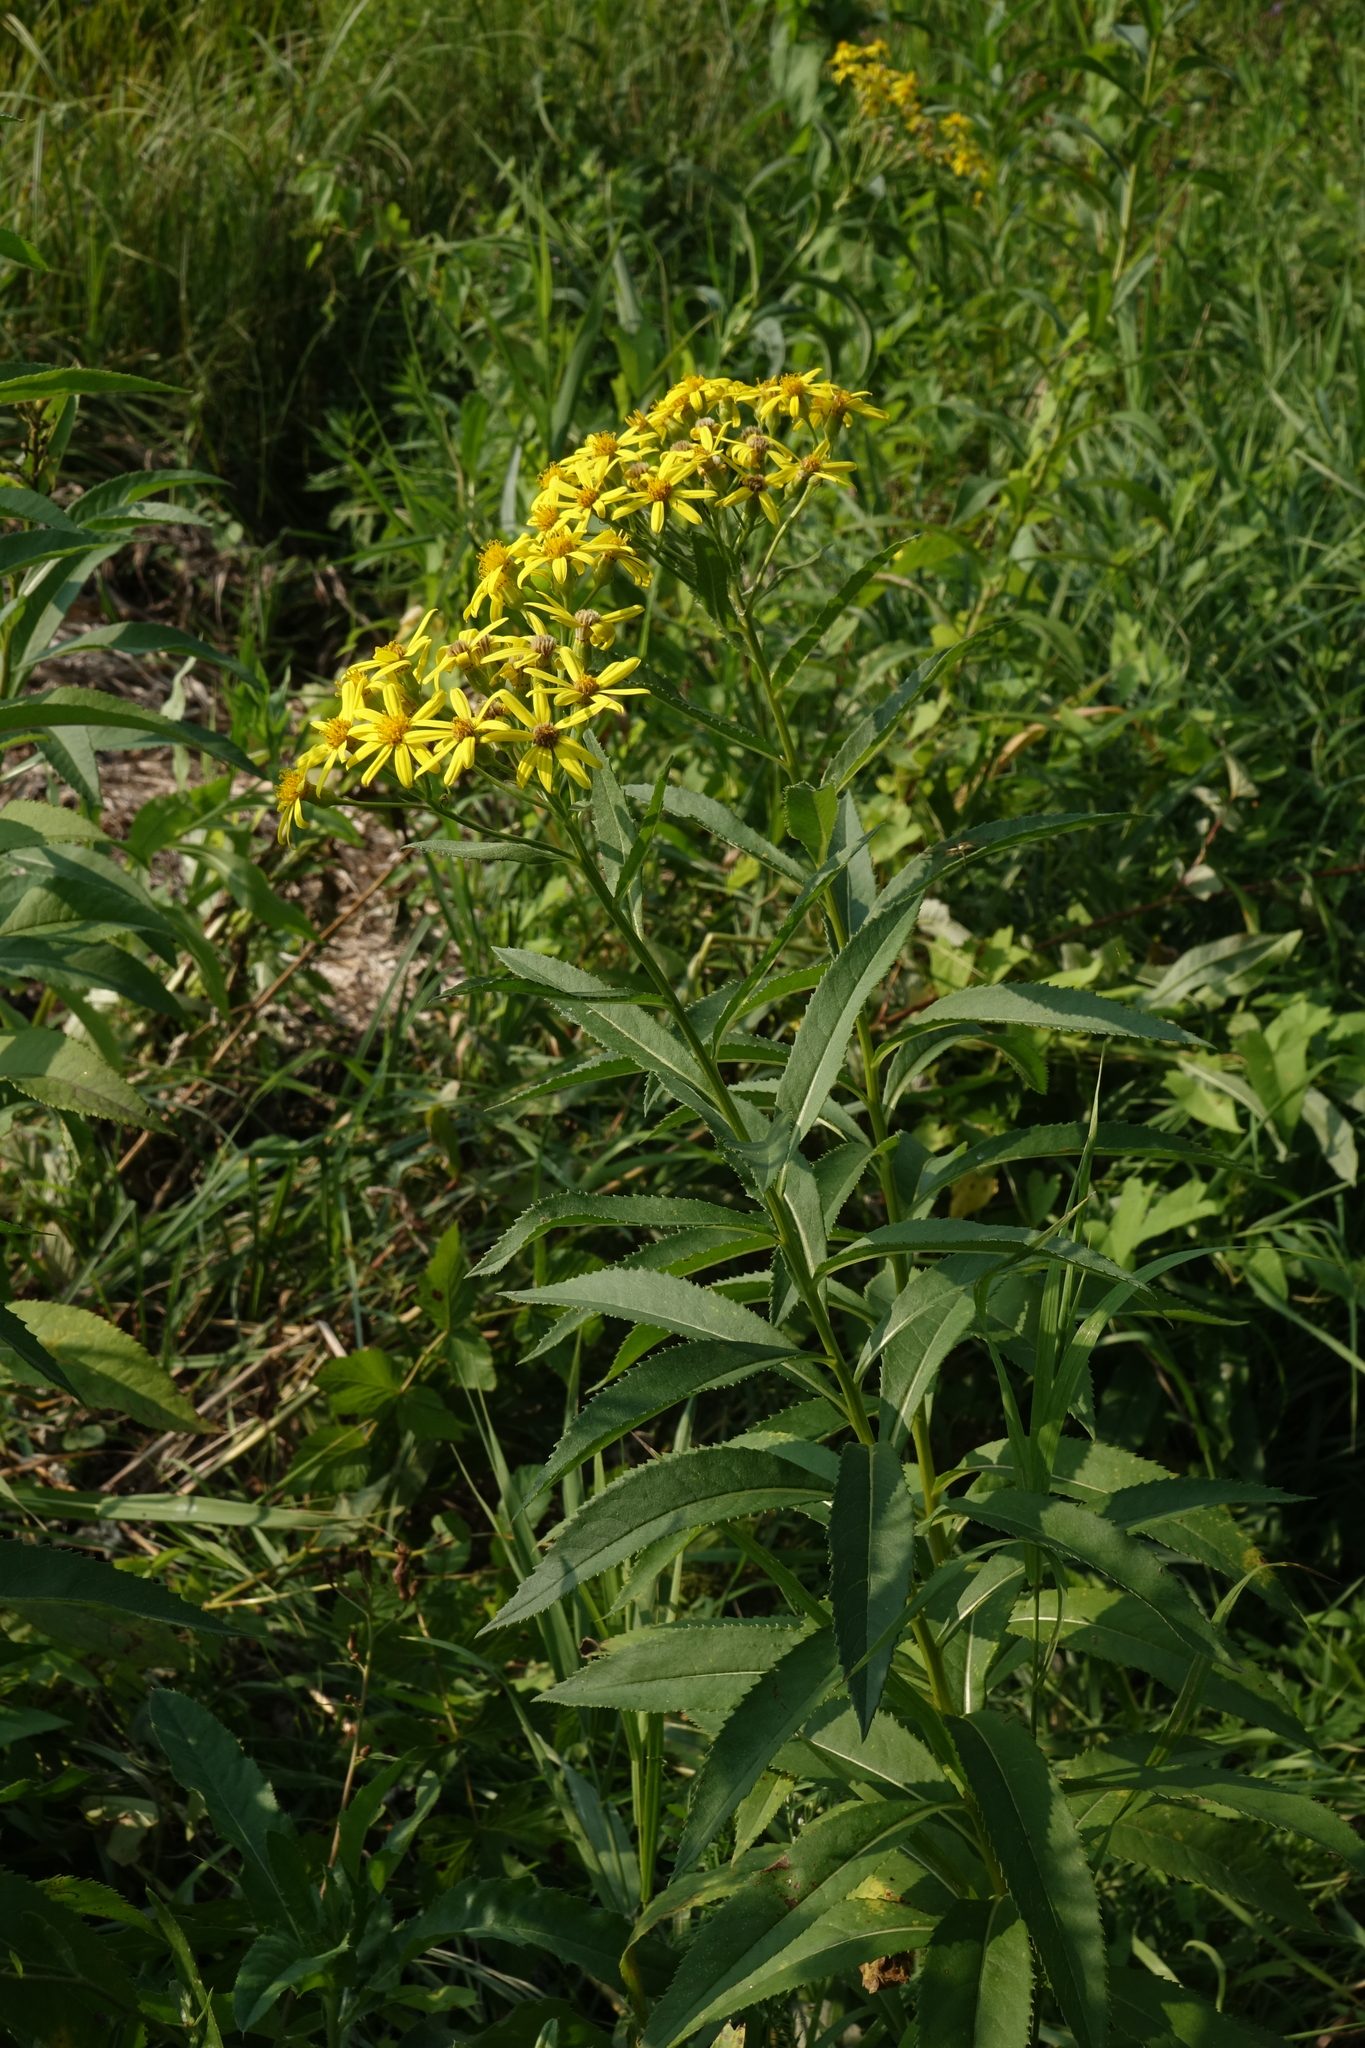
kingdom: Plantae
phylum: Tracheophyta
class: Magnoliopsida
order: Asterales
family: Asteraceae
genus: Senecio
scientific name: Senecio sarracenicus
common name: Broad-leaved ragwort
